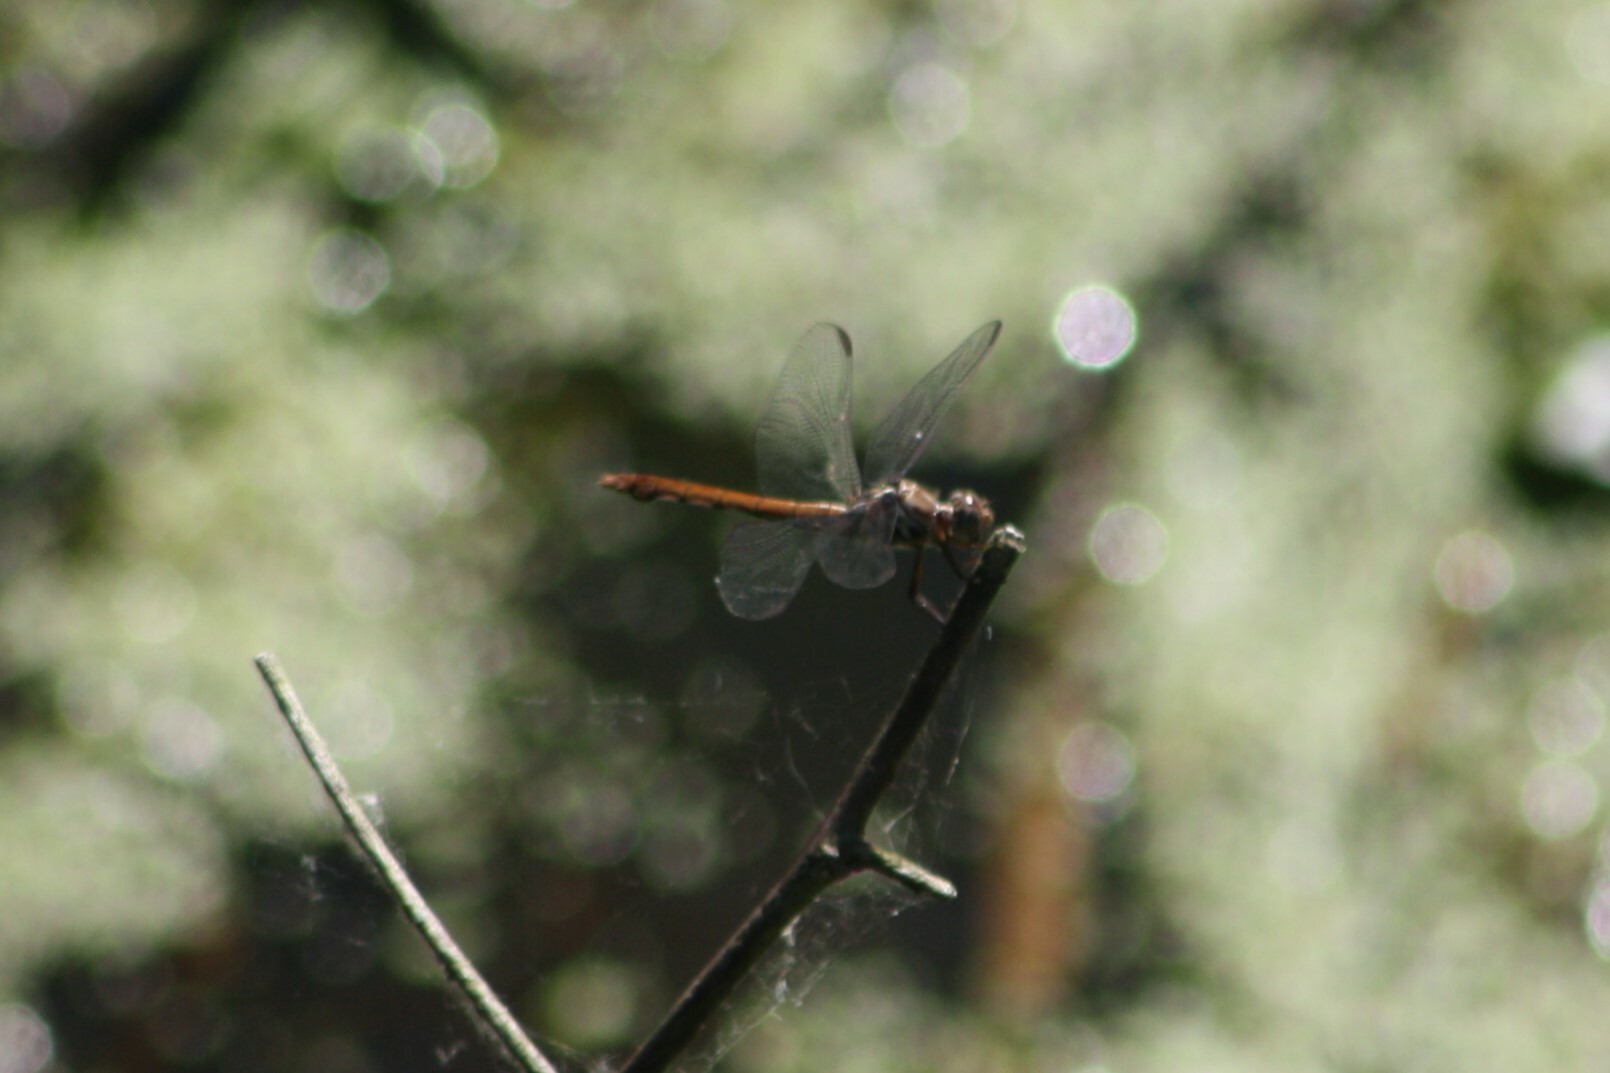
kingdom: Animalia
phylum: Arthropoda
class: Insecta
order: Odonata
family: Libellulidae
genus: Orthemis
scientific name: Orthemis ferruginea
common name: Roseate skimmer
